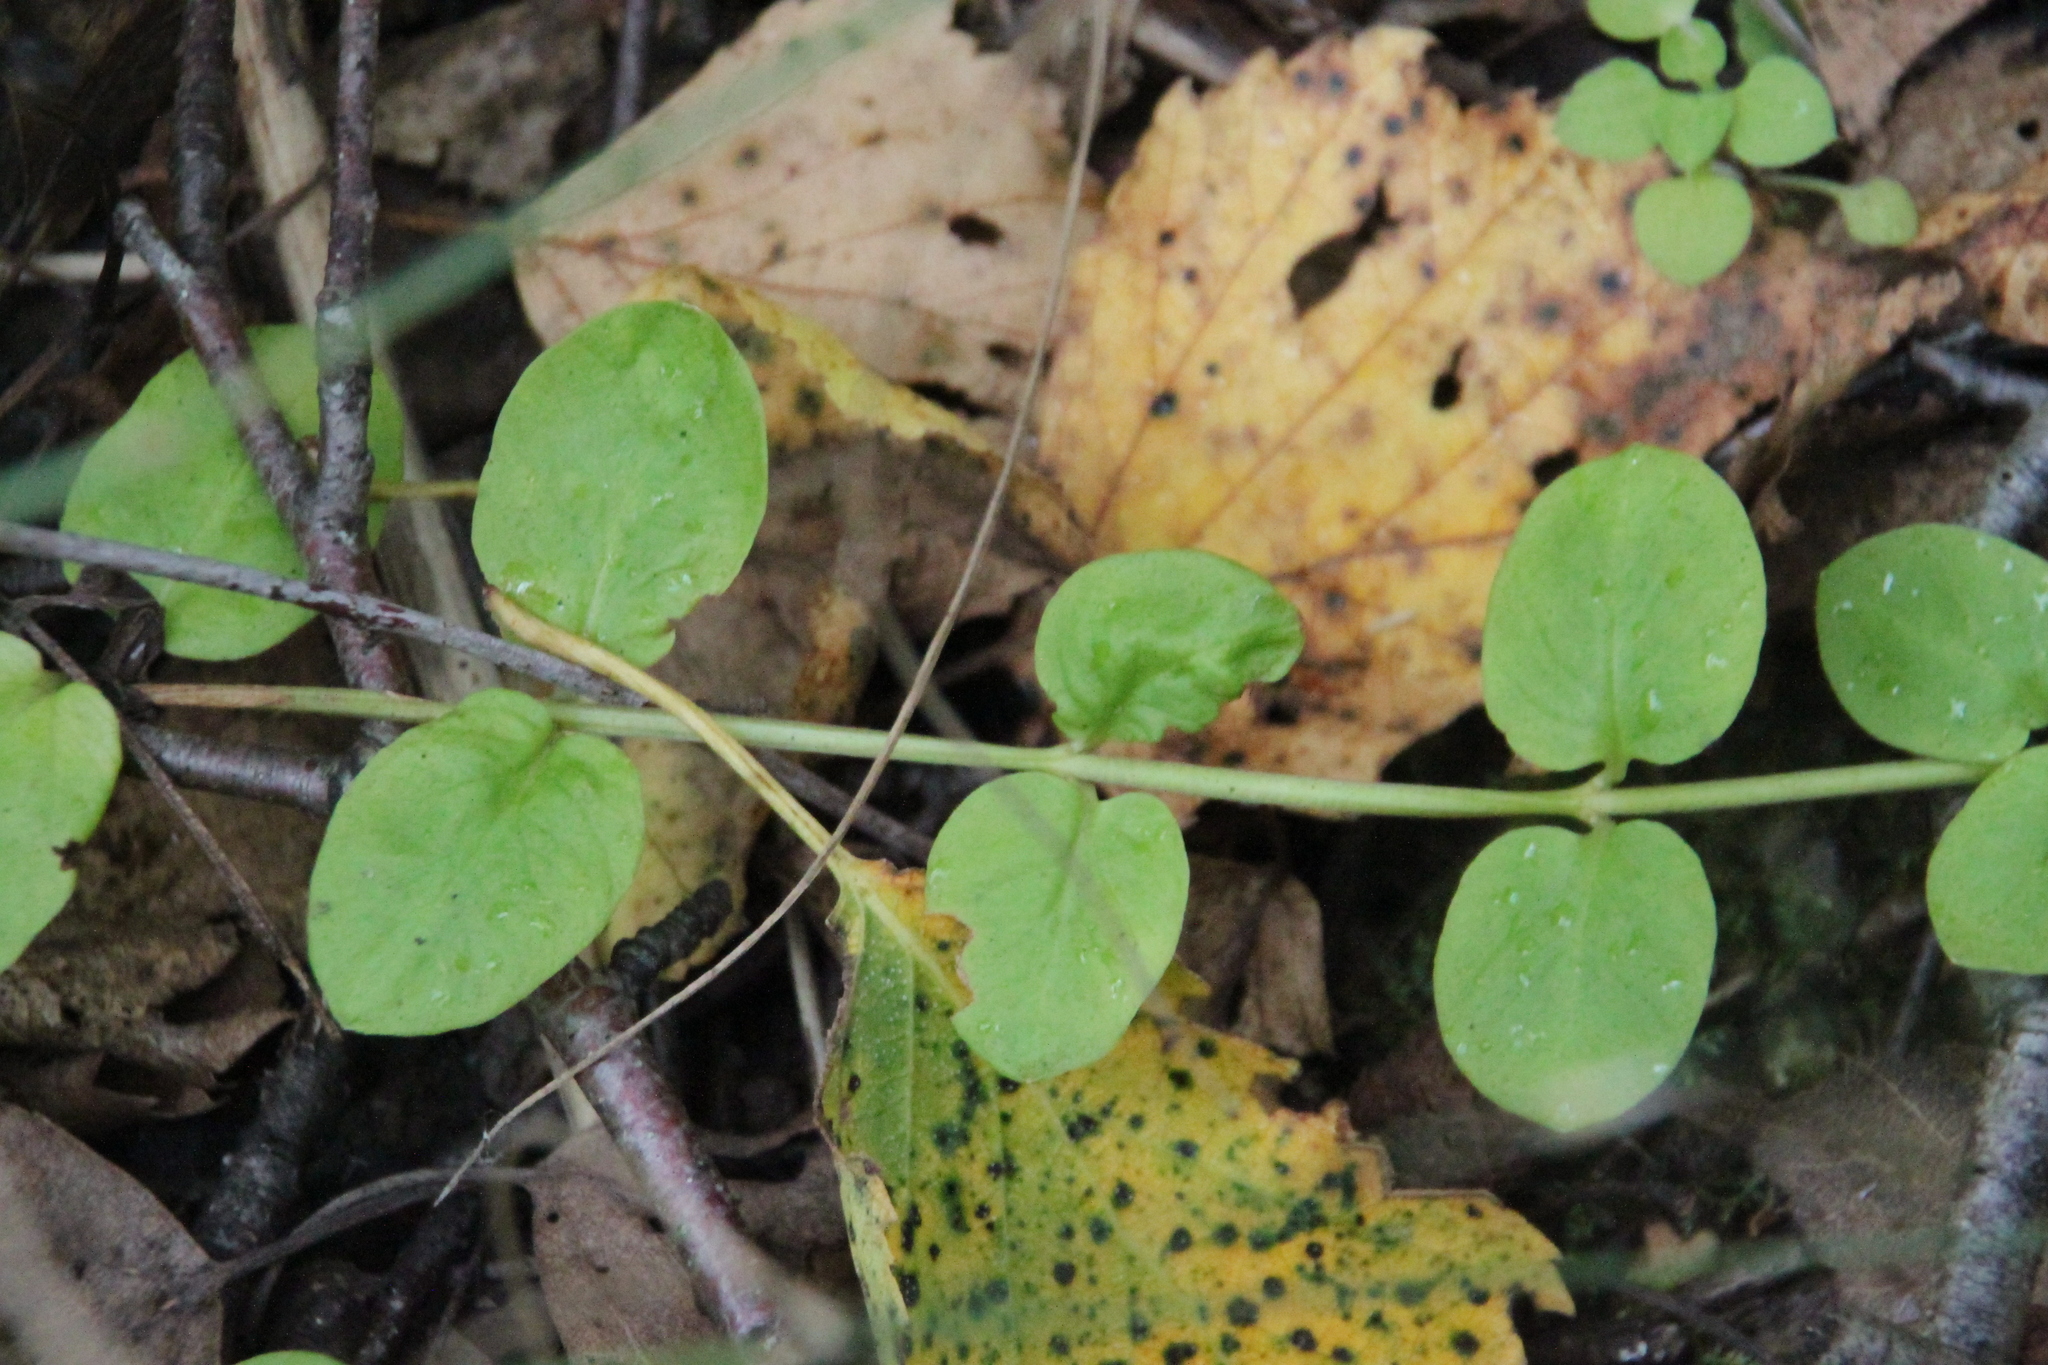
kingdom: Plantae
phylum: Tracheophyta
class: Magnoliopsida
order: Ericales
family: Primulaceae
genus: Lysimachia
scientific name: Lysimachia nummularia
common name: Moneywort
